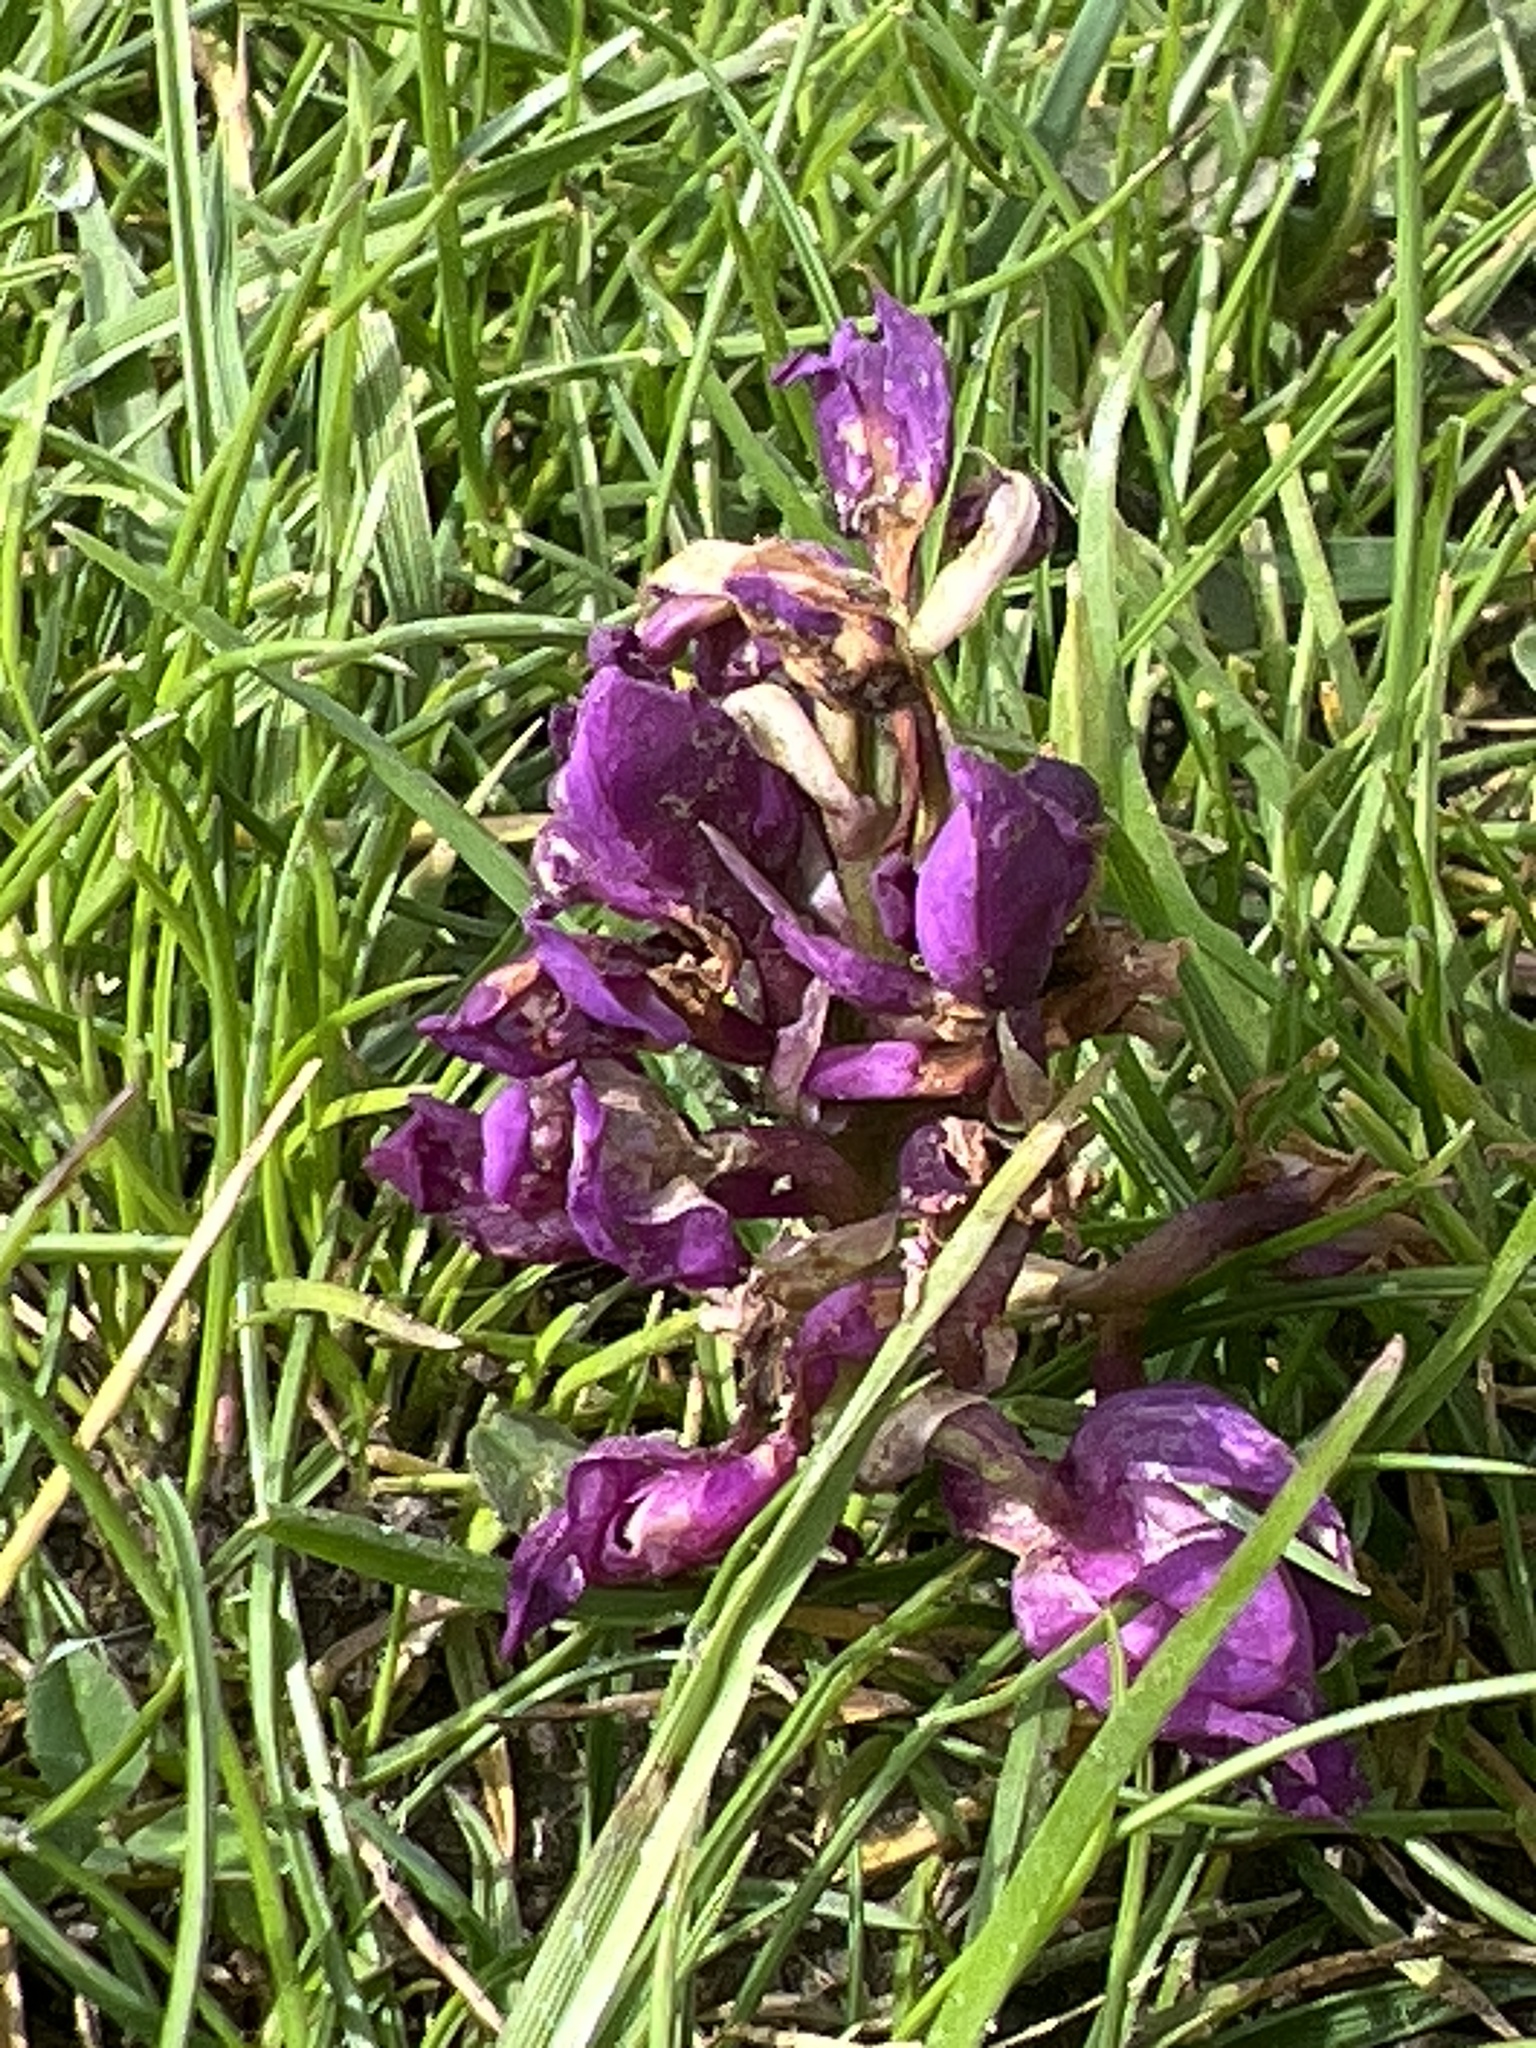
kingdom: Plantae
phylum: Tracheophyta
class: Liliopsida
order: Asparagales
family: Orchidaceae
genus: Orchis
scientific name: Orchis mascula
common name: Early-purple orchid
